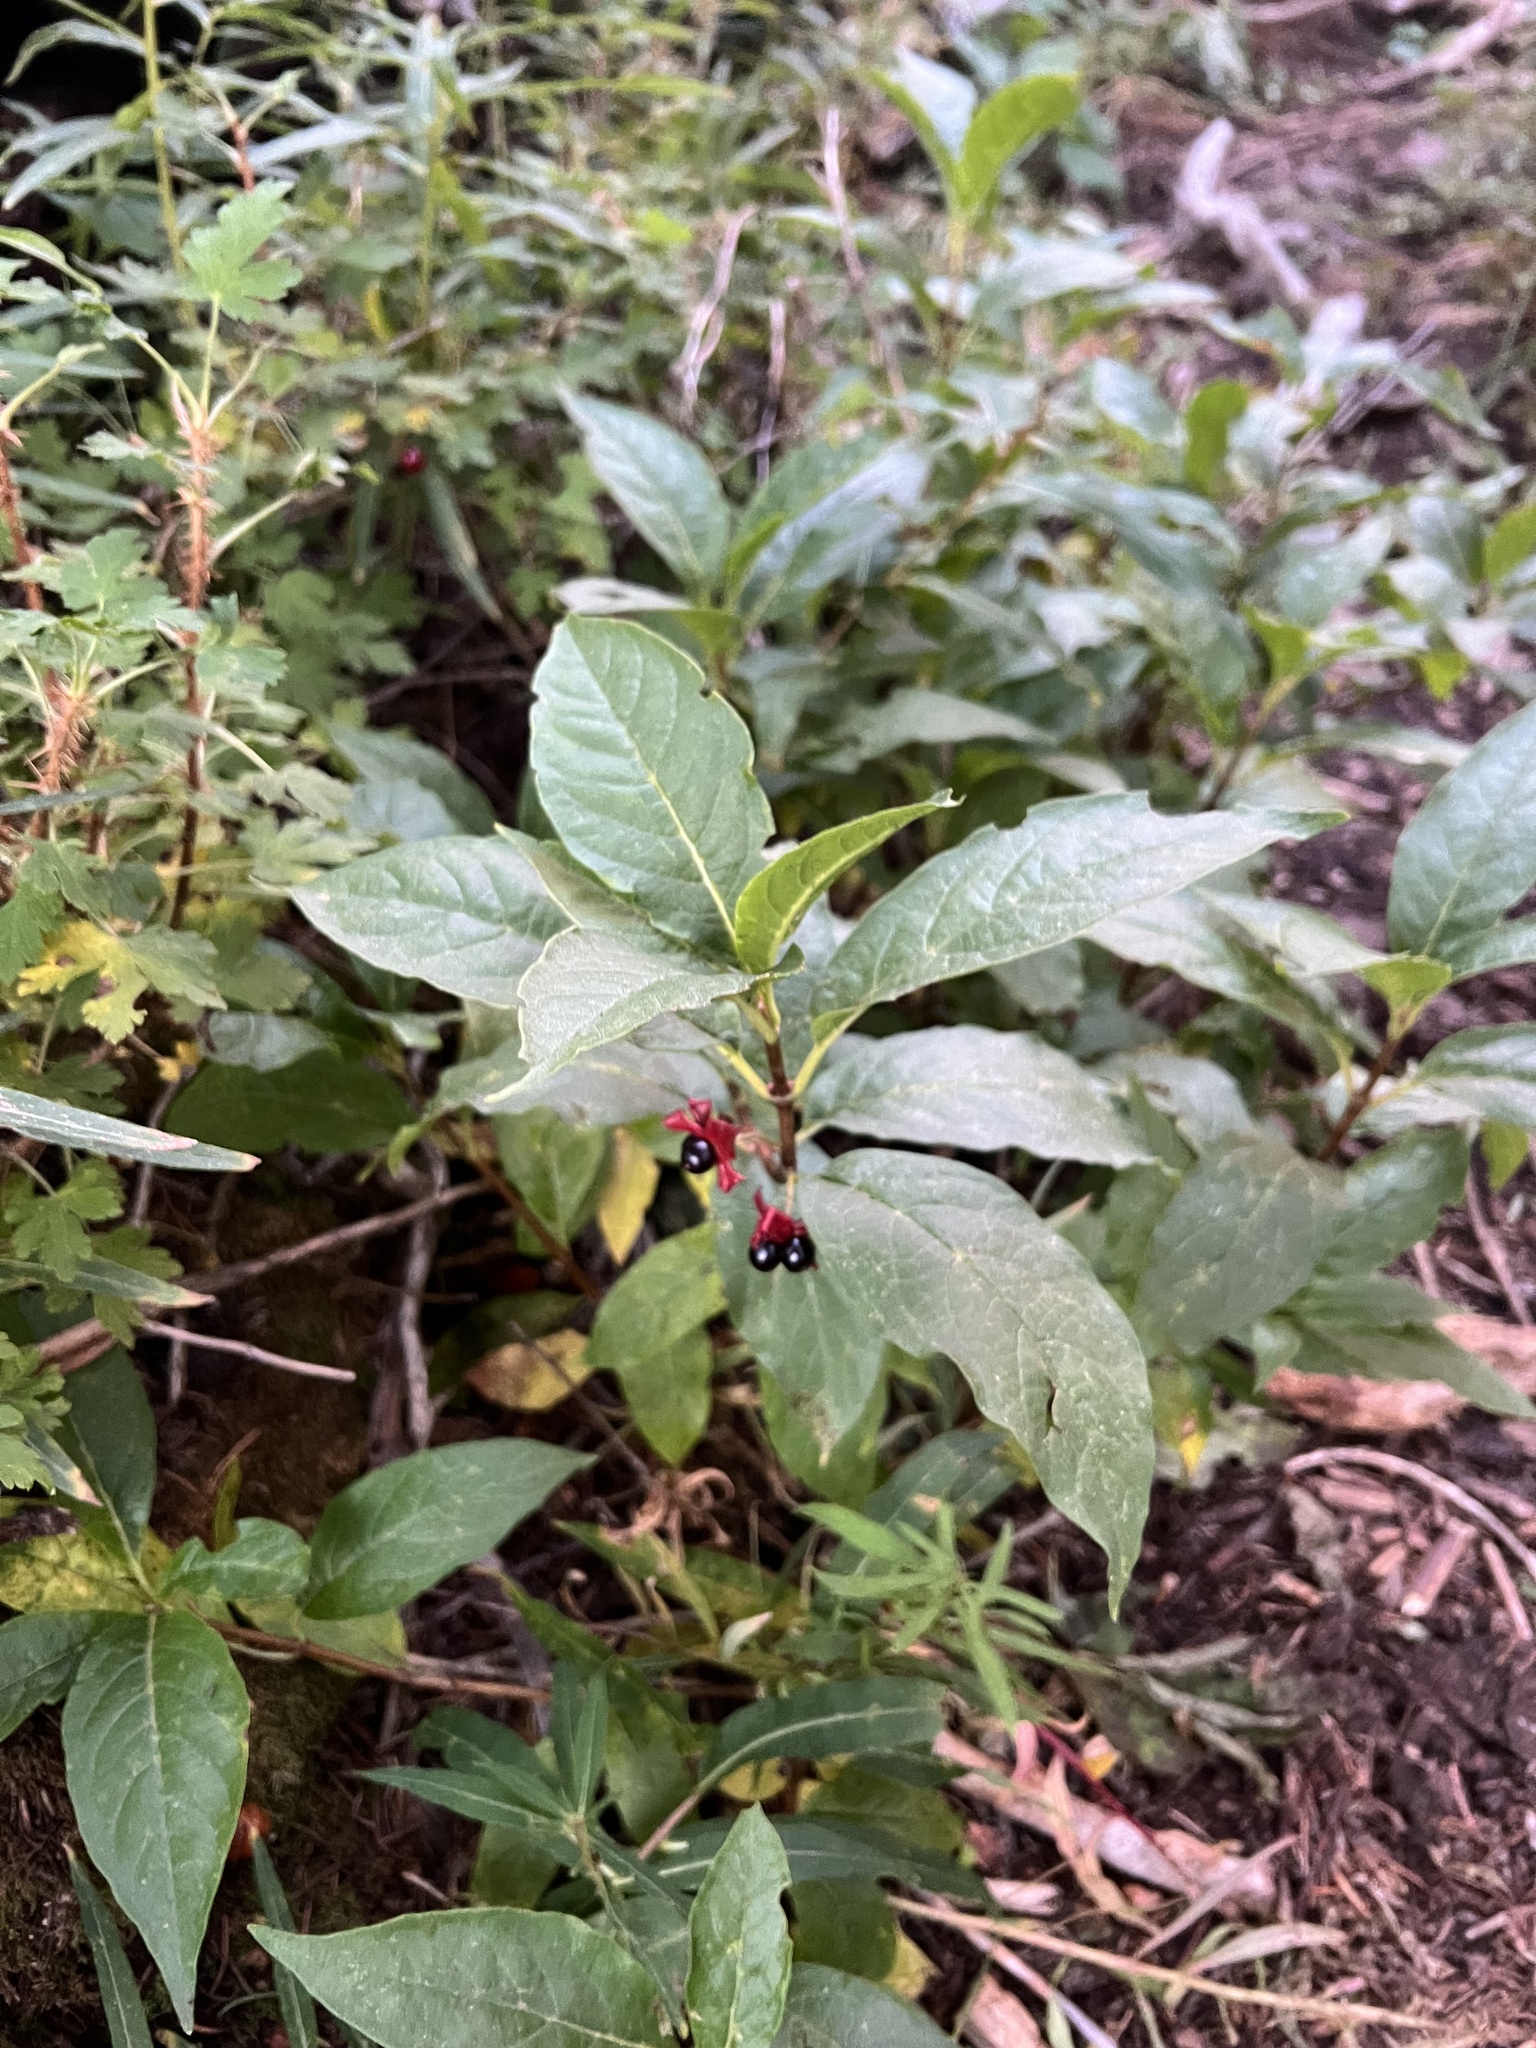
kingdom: Plantae
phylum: Tracheophyta
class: Magnoliopsida
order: Dipsacales
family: Caprifoliaceae
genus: Lonicera
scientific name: Lonicera involucrata
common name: Californian honeysuckle
